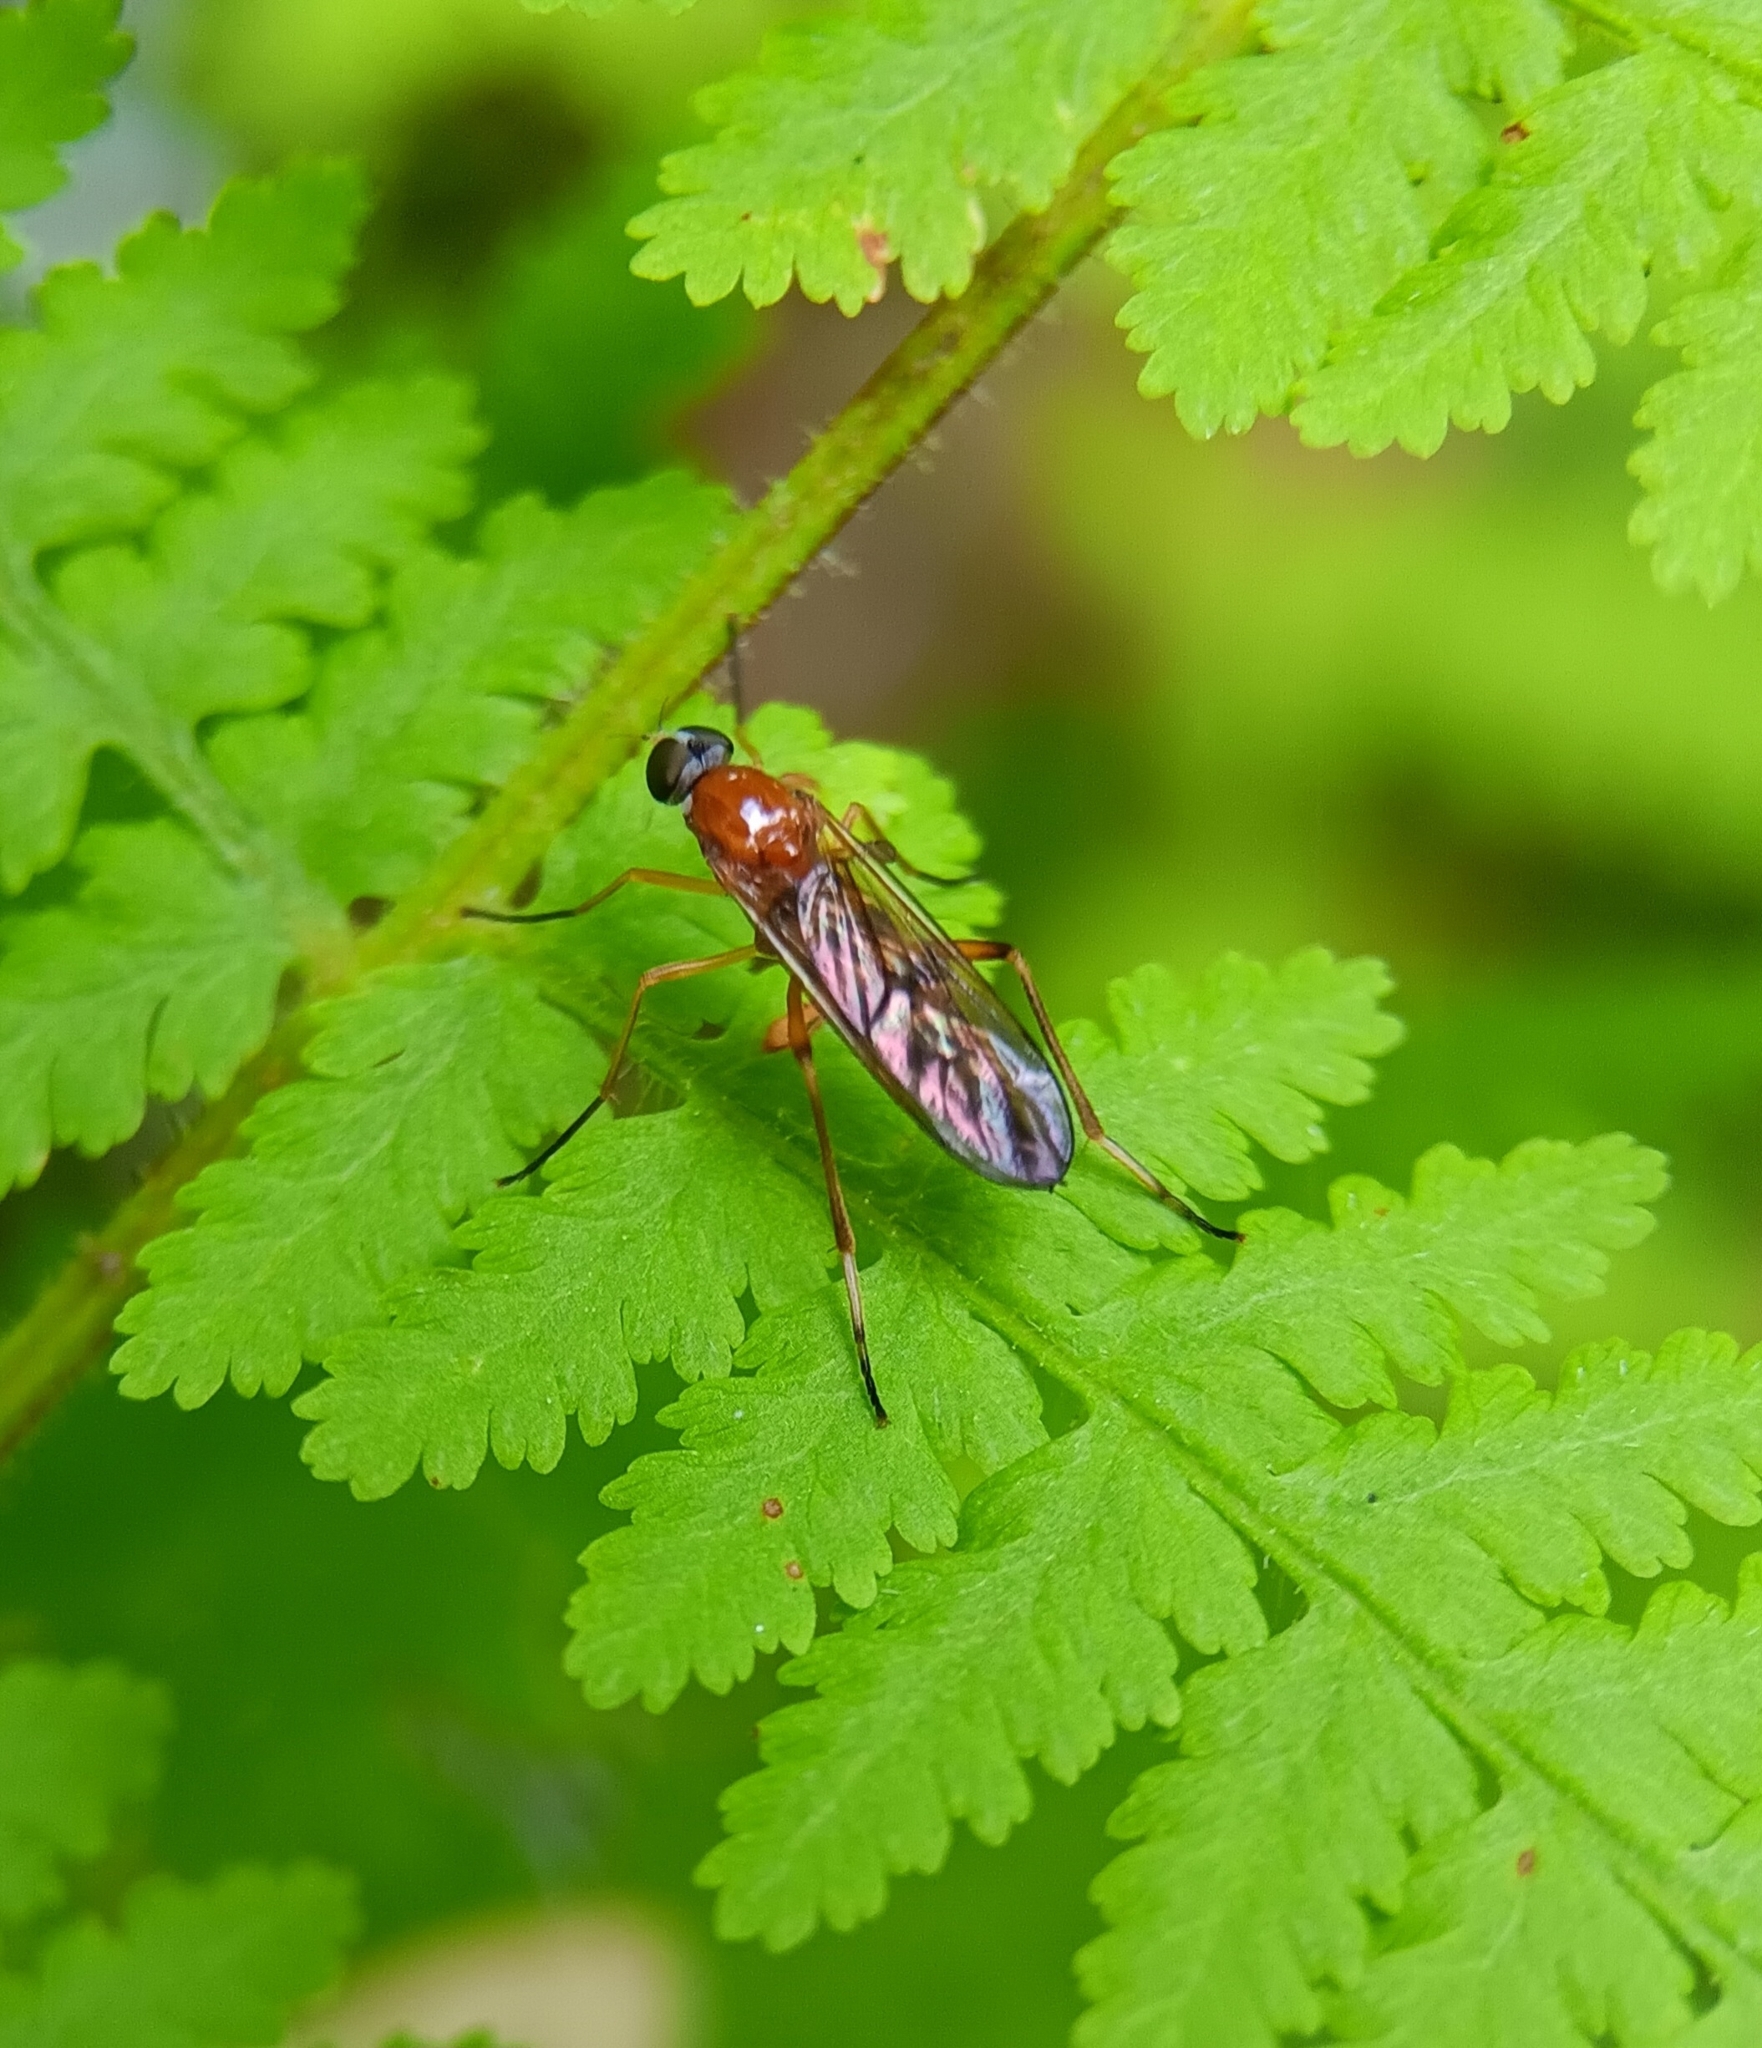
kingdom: Animalia
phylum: Arthropoda
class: Insecta
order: Diptera
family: Xylophagidae
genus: Dialysis
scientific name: Dialysis rufithorax
